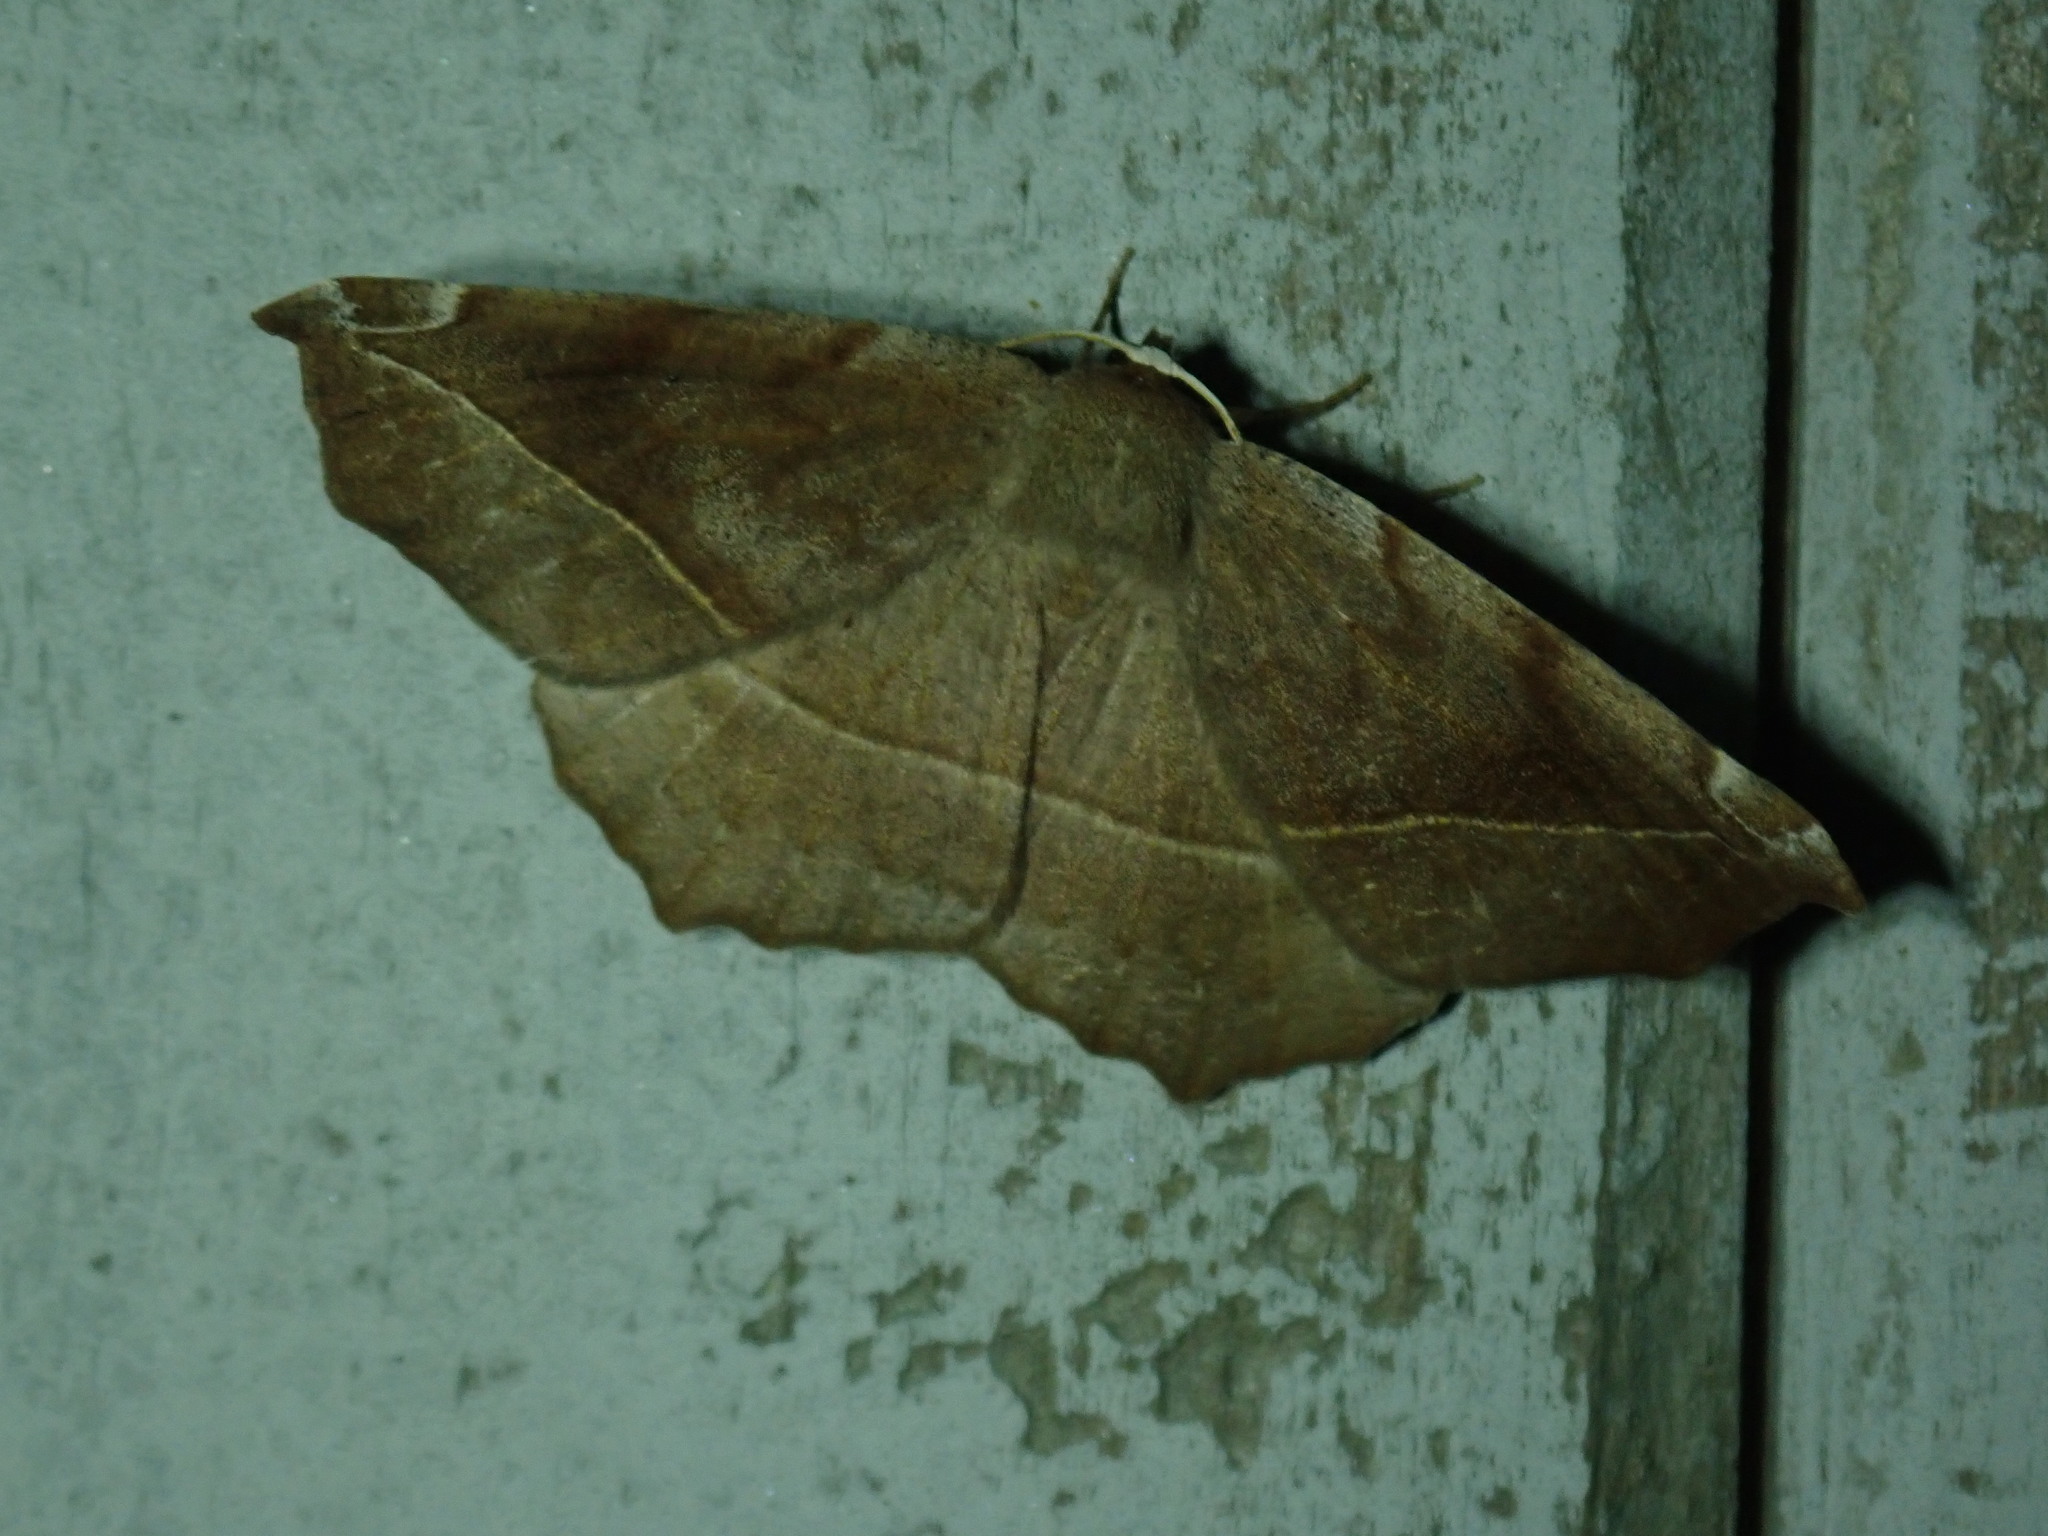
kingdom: Animalia
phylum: Arthropoda
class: Insecta
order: Lepidoptera
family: Geometridae
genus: Eutrapela
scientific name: Eutrapela clemataria
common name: Curved-toothed geometer
